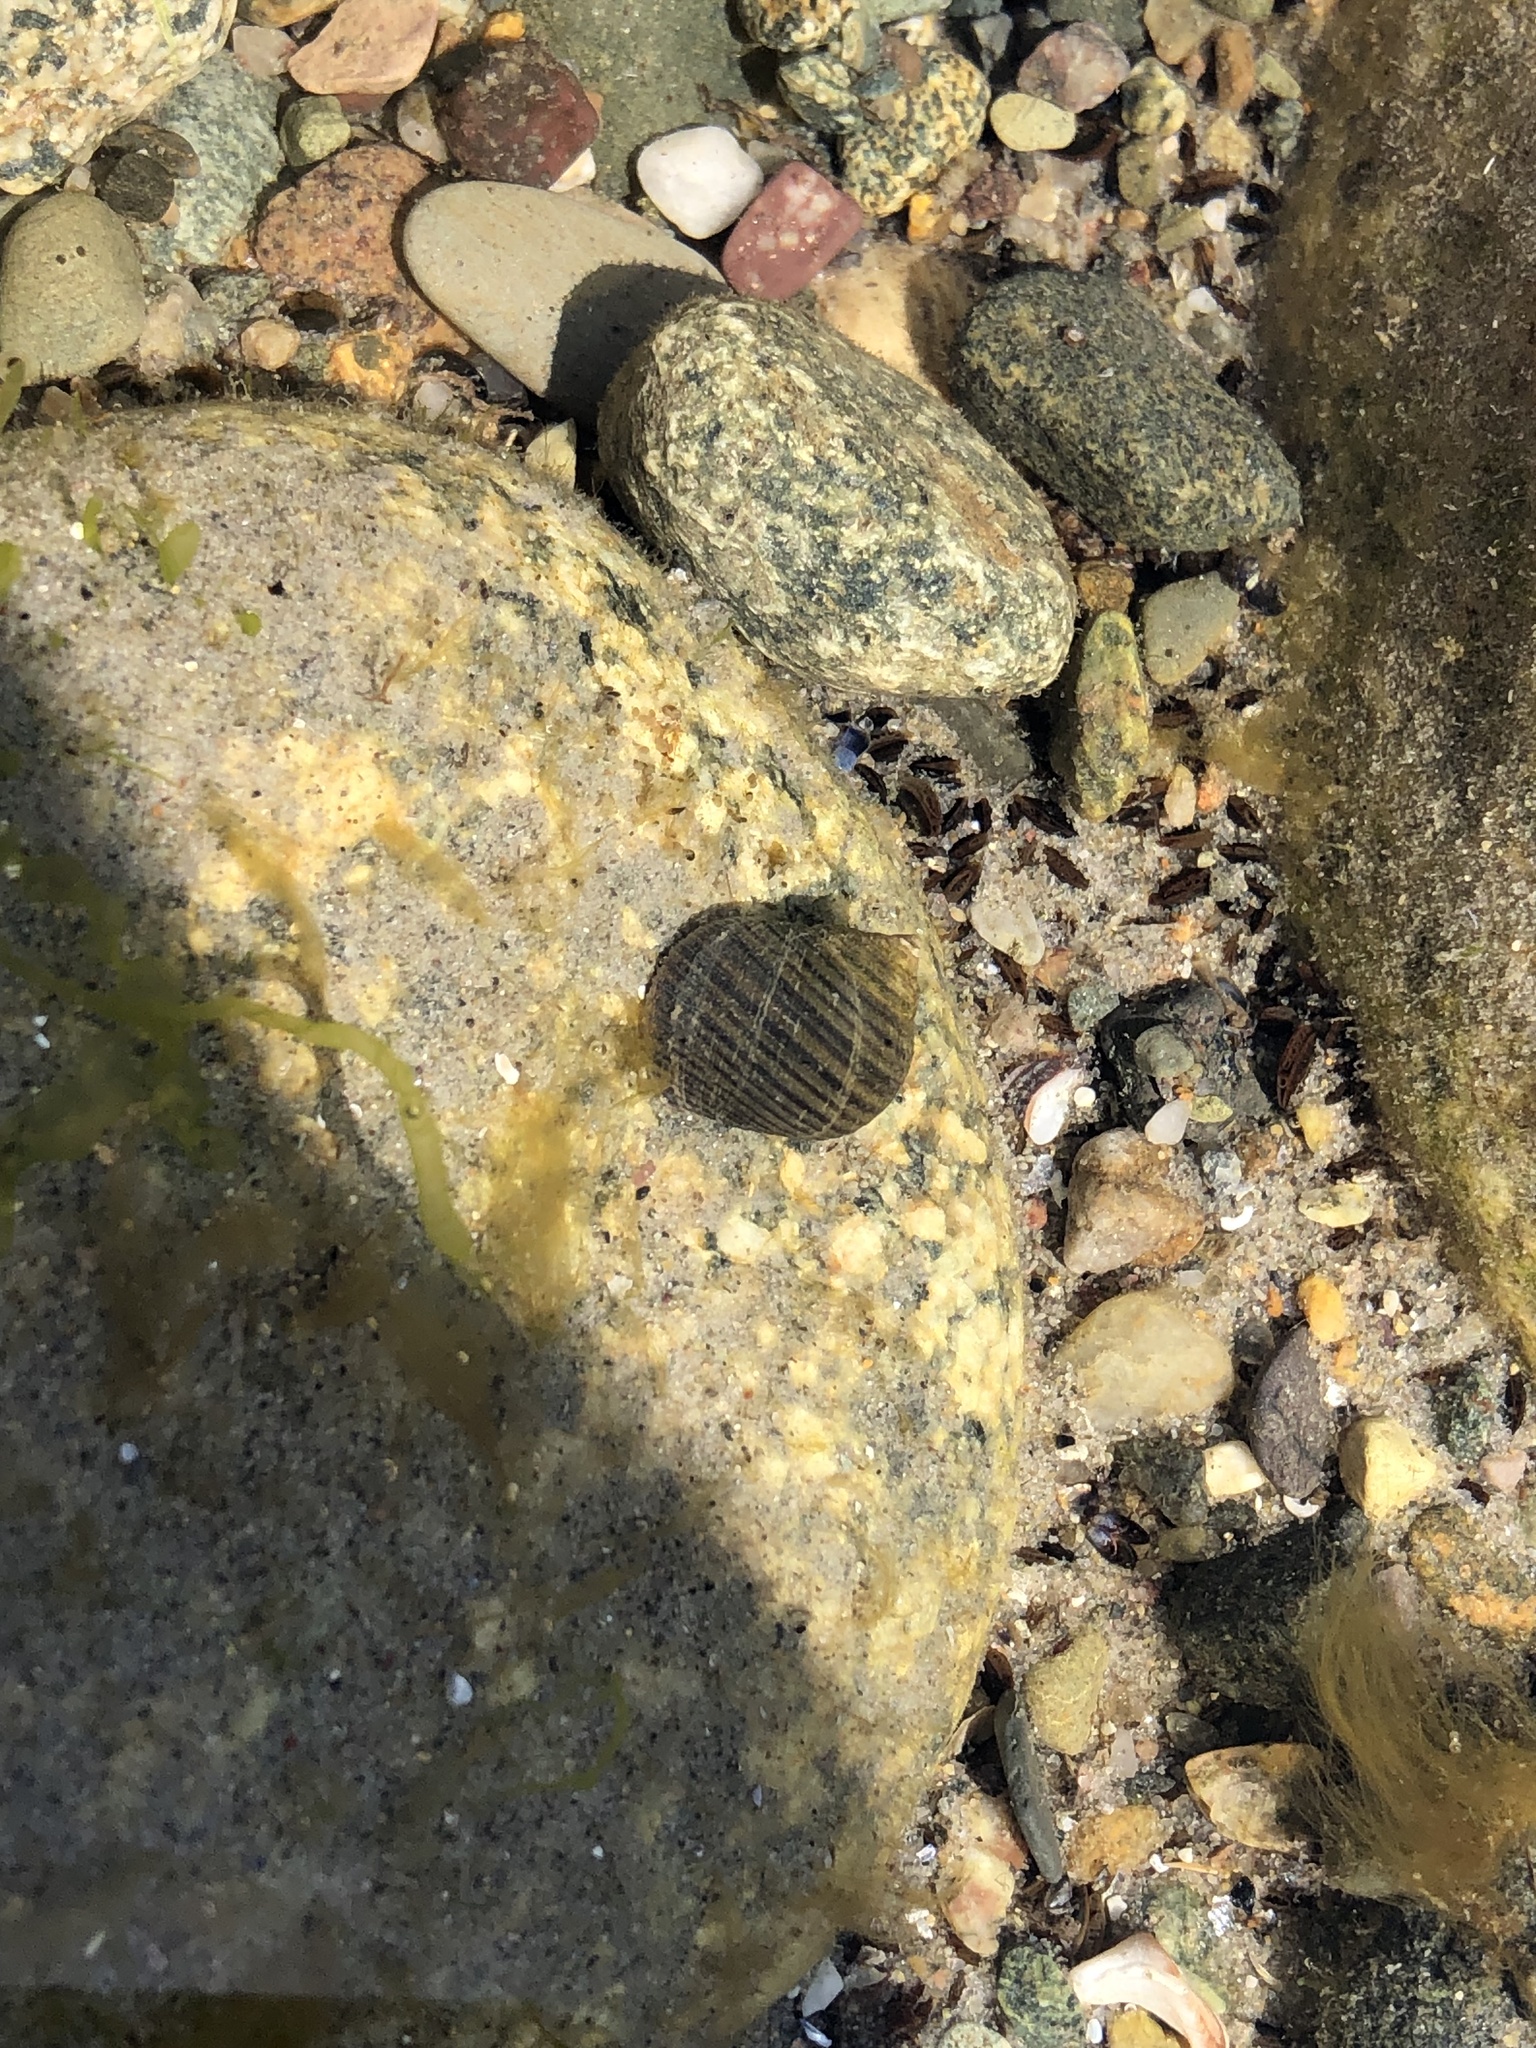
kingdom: Animalia
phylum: Mollusca
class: Gastropoda
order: Littorinimorpha
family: Littorinidae
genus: Littorina
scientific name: Littorina littorea
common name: Common periwinkle
